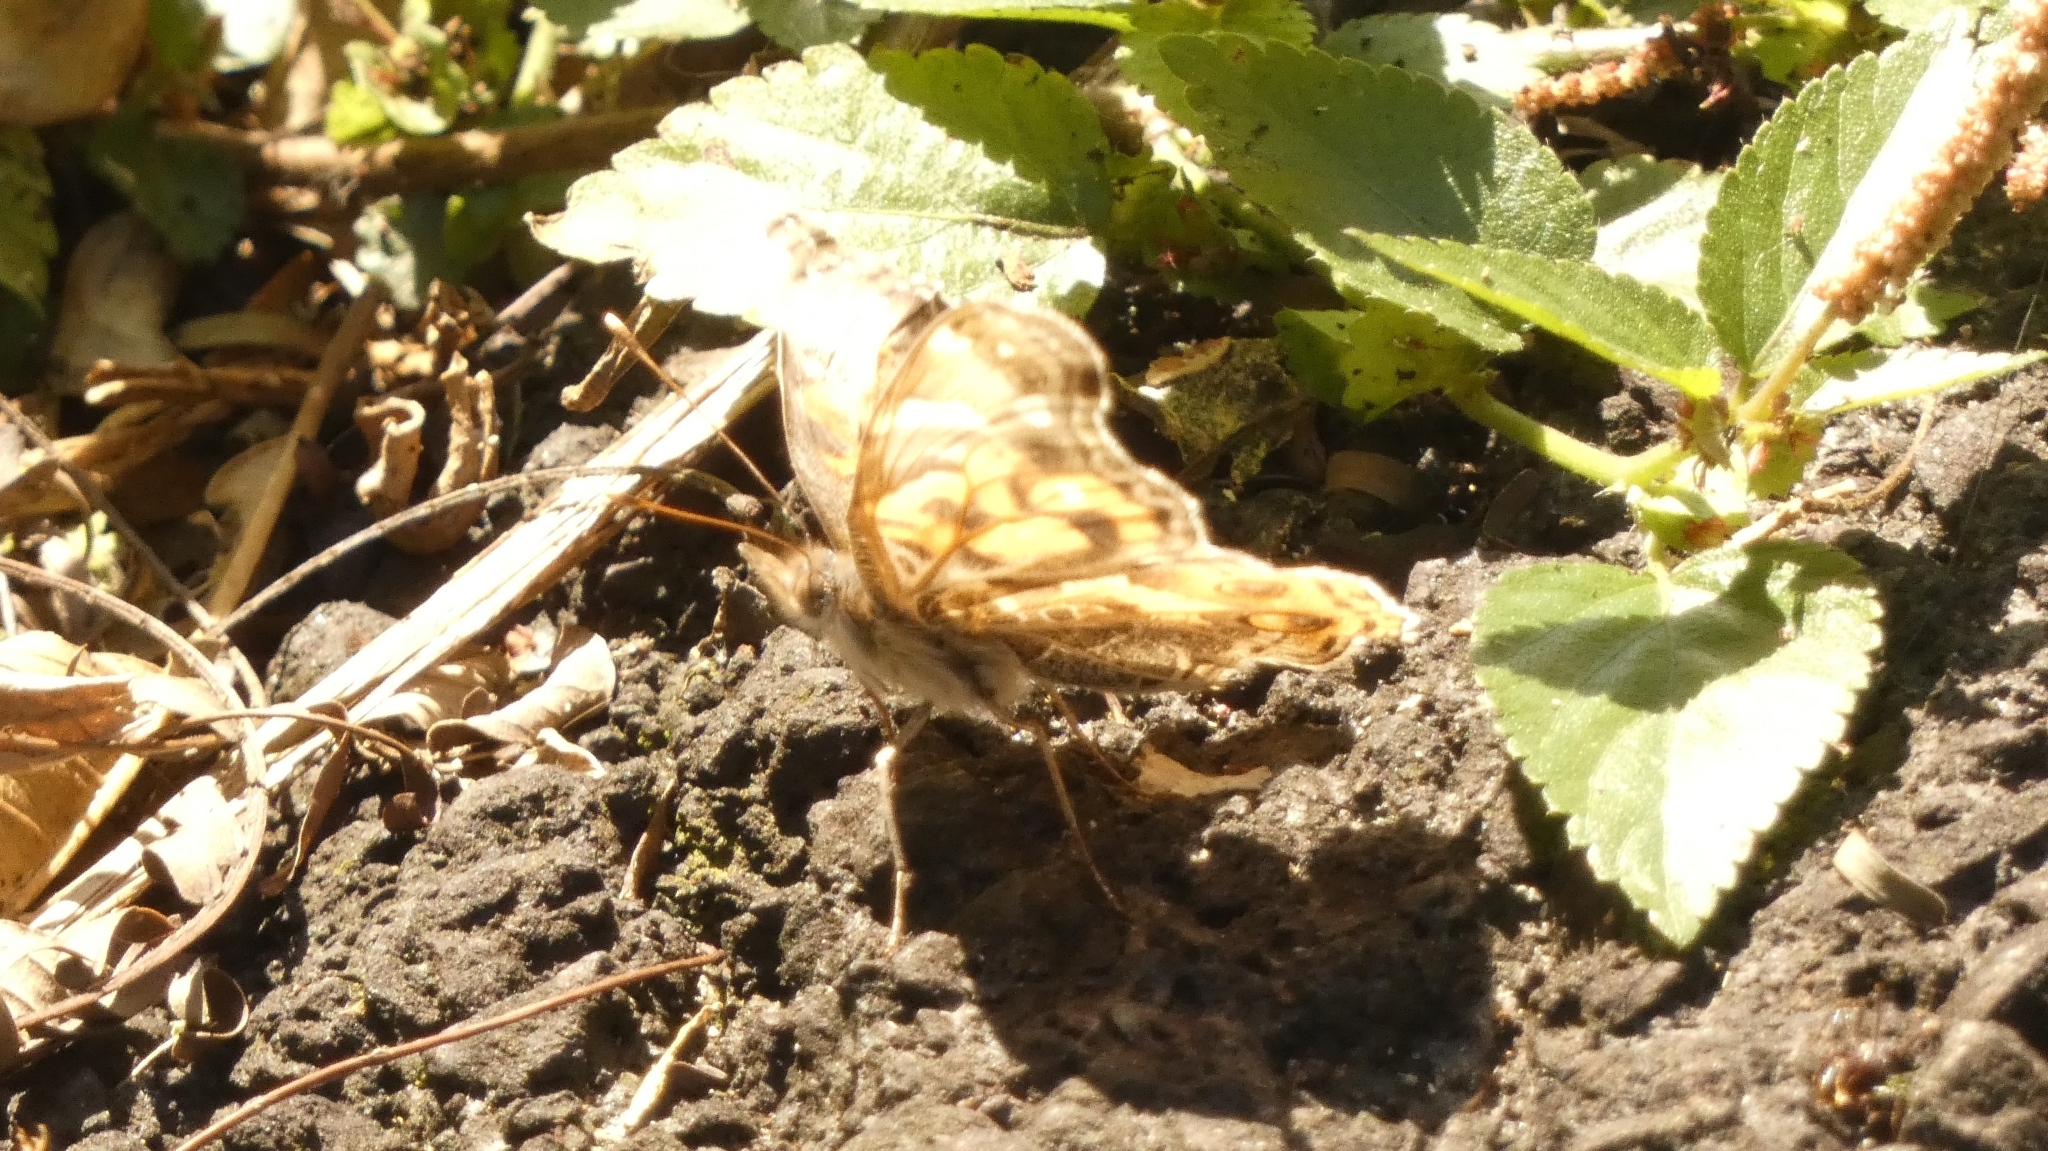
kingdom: Animalia
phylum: Arthropoda
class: Insecta
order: Lepidoptera
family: Nymphalidae
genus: Vanessa
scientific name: Vanessa braziliensis
